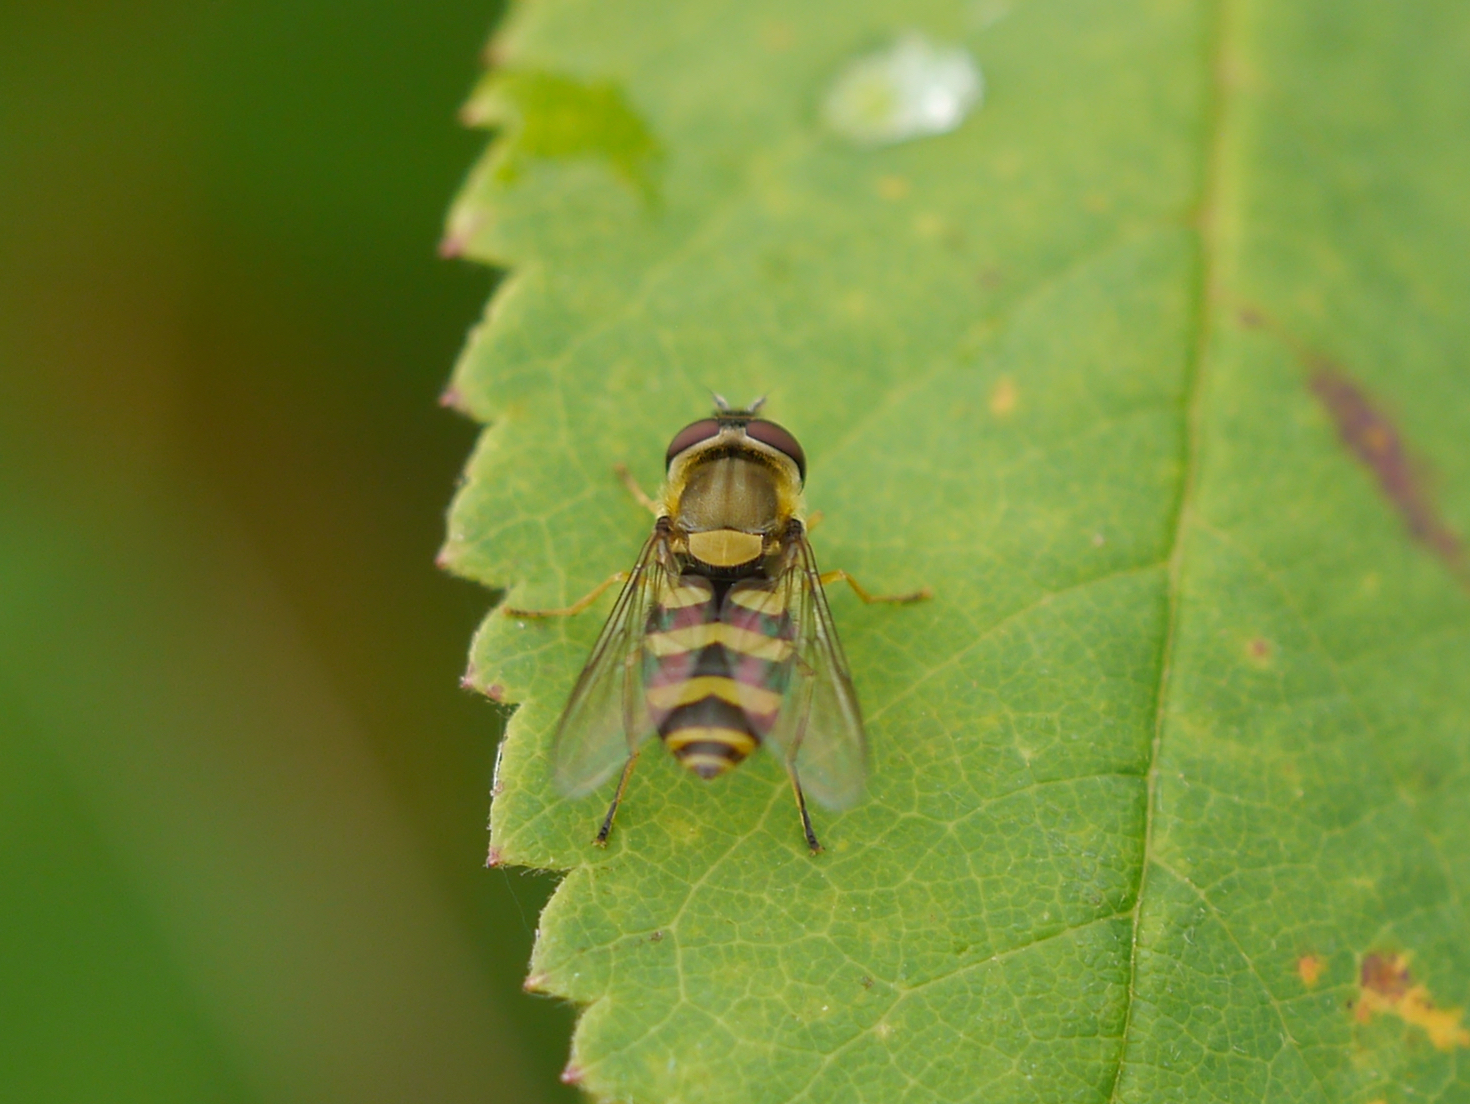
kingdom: Animalia
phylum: Arthropoda
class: Insecta
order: Diptera
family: Syrphidae
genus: Syrphus
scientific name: Syrphus
